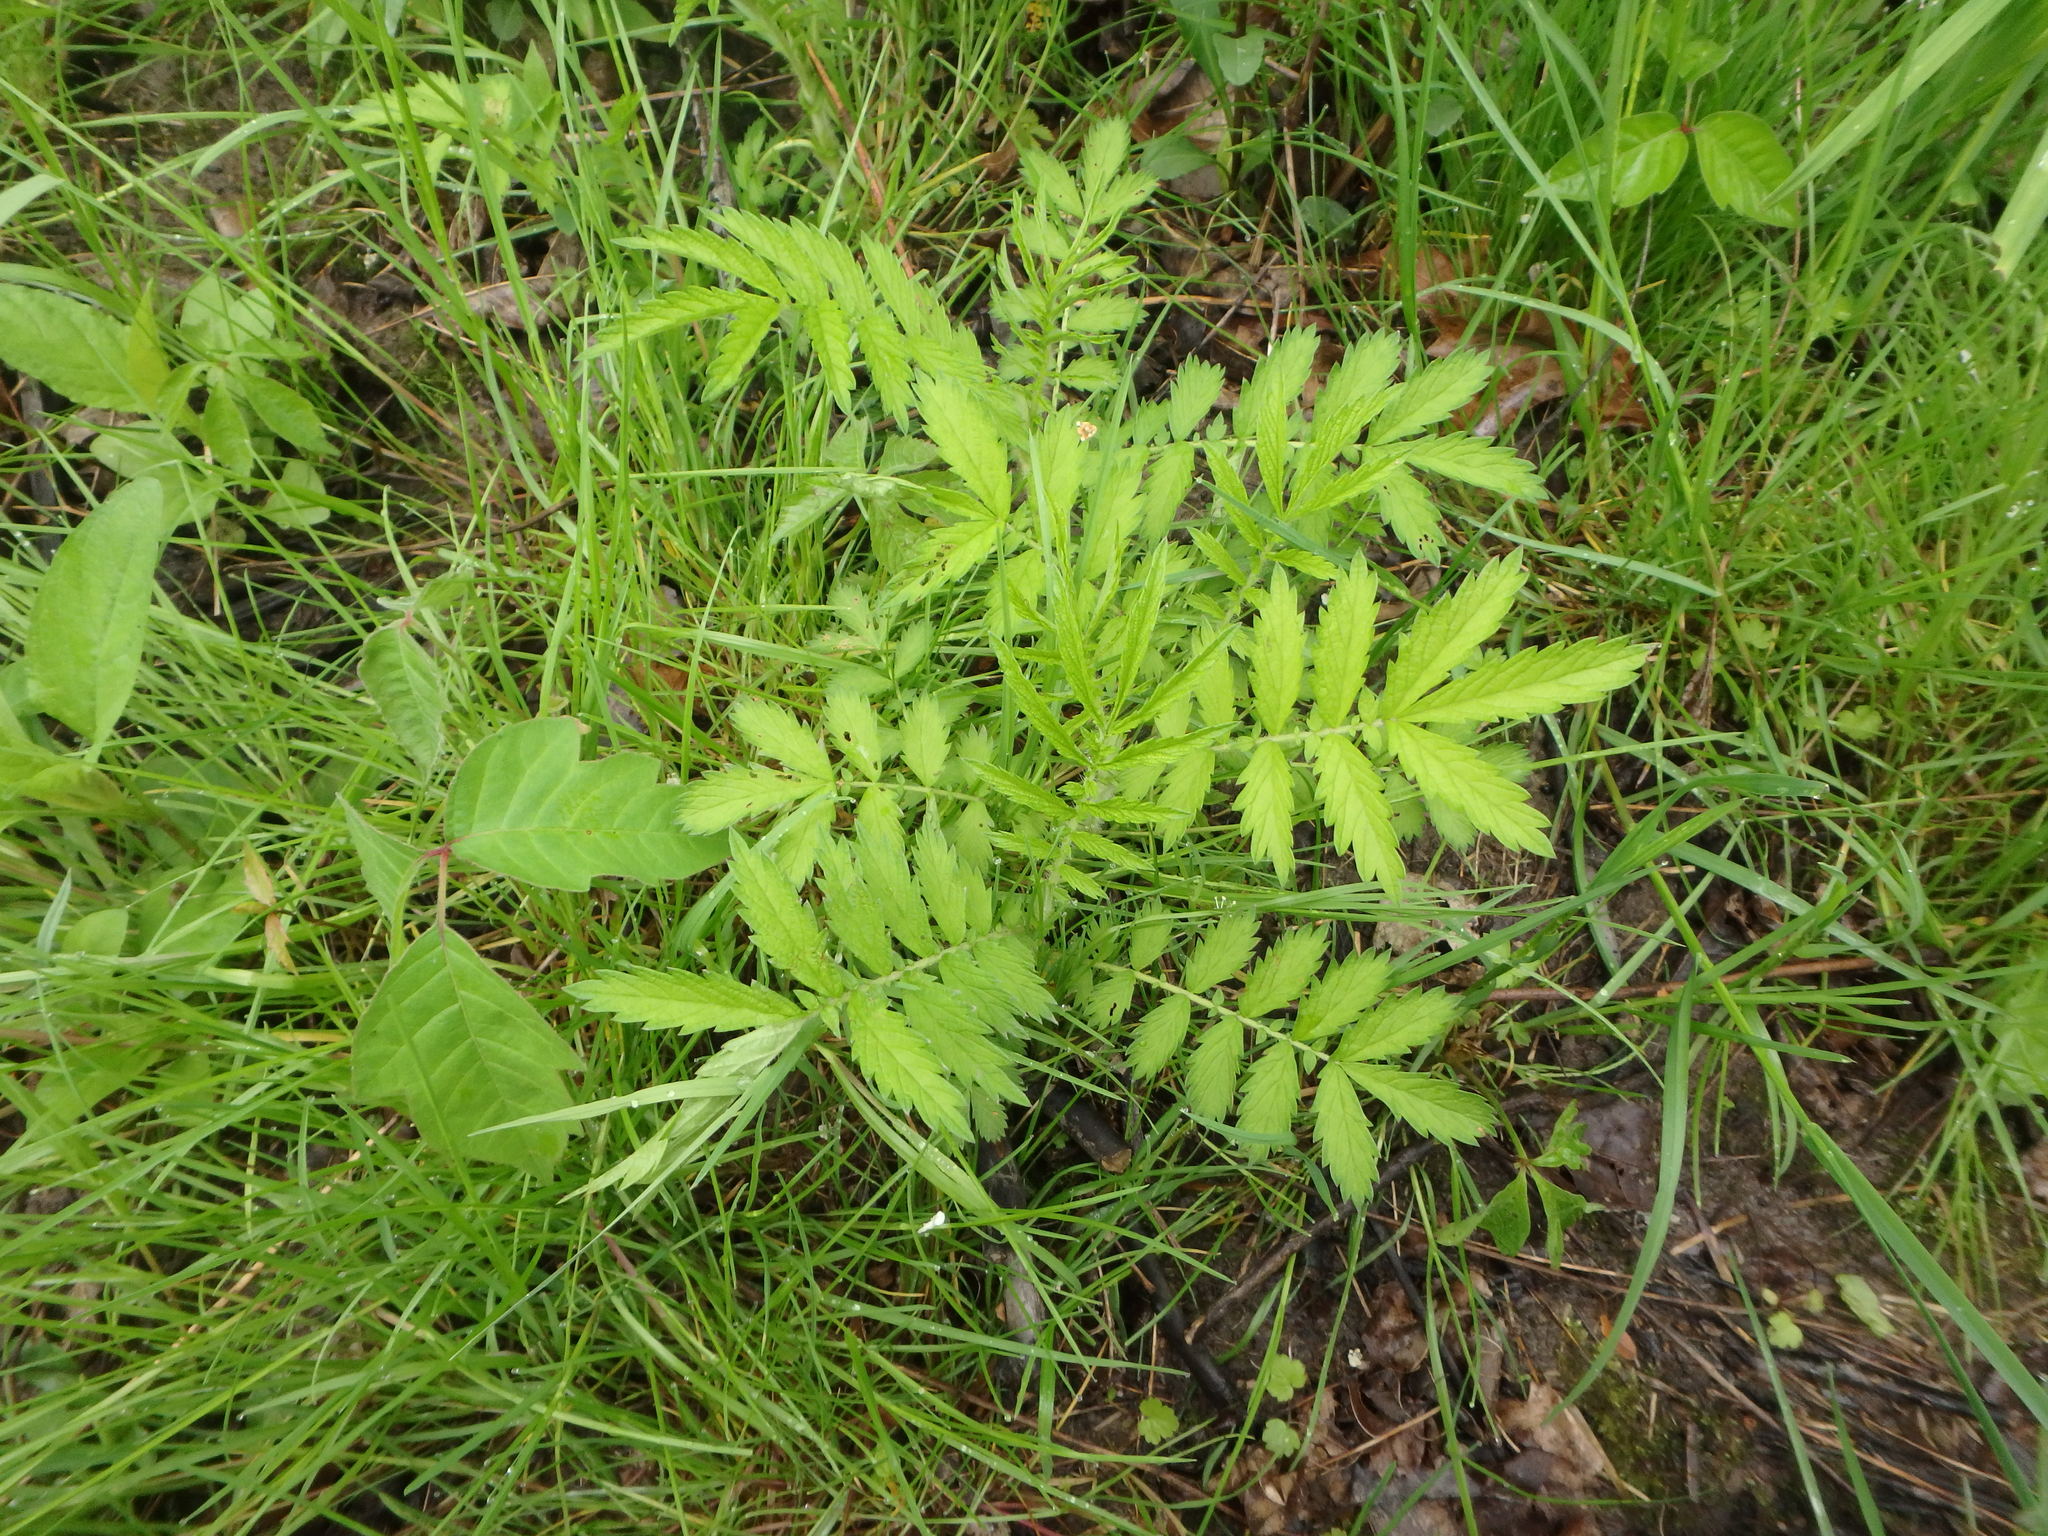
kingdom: Plantae
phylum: Tracheophyta
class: Magnoliopsida
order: Rosales
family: Rosaceae
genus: Agrimonia
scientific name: Agrimonia parviflora
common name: Harvest-lice
